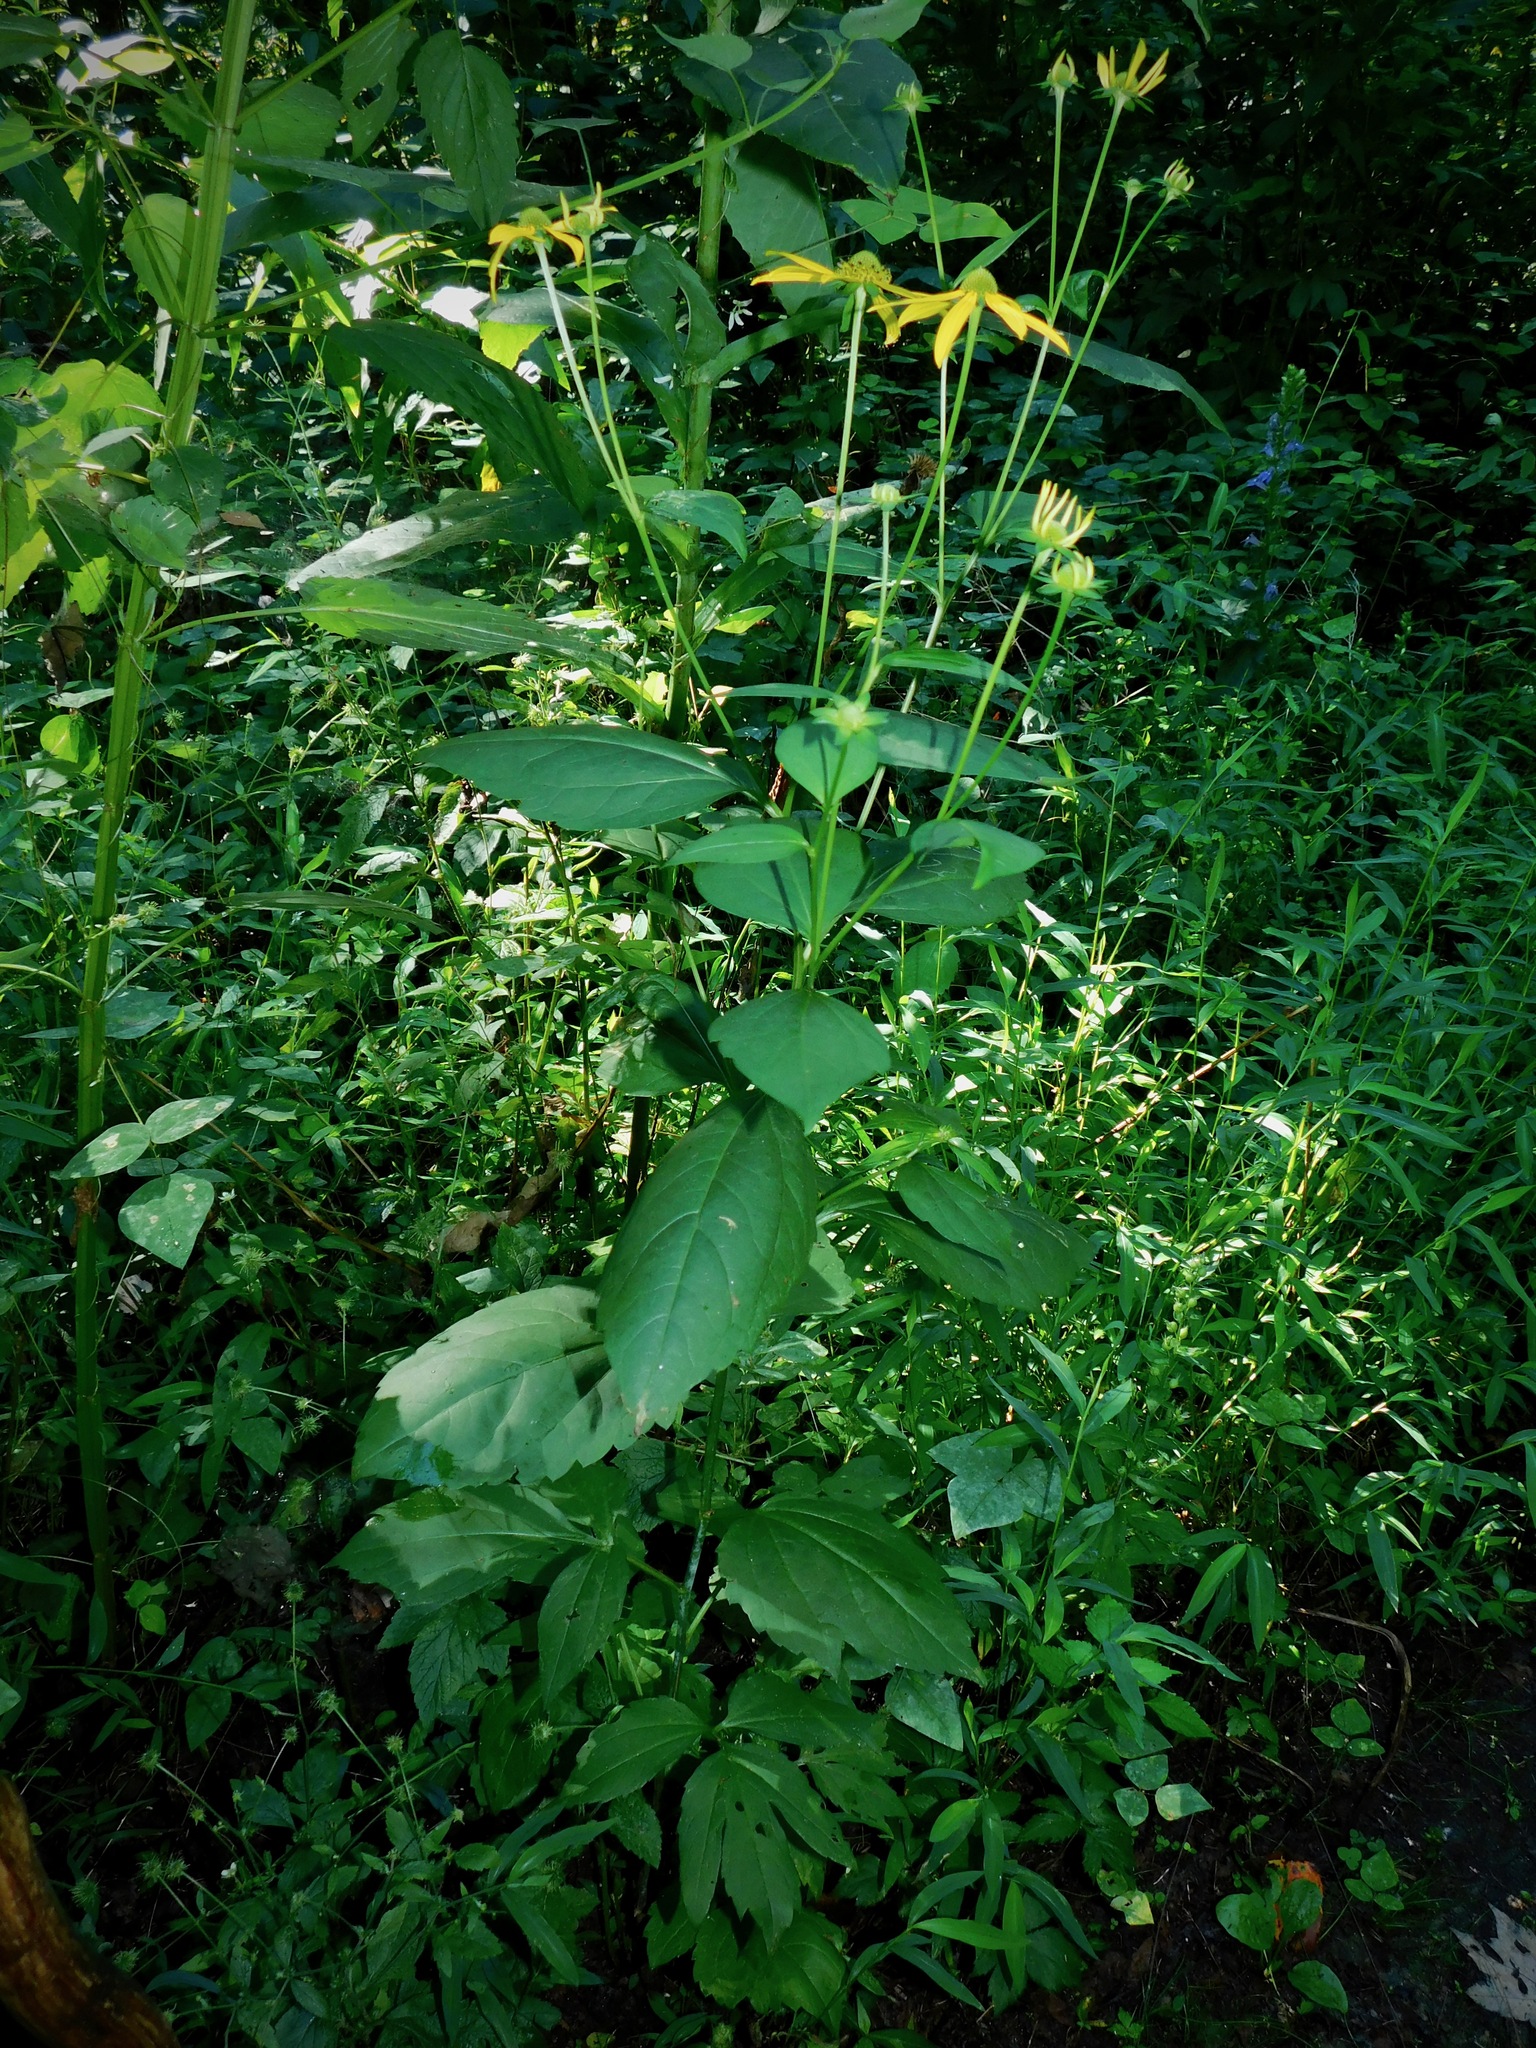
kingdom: Plantae
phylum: Tracheophyta
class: Magnoliopsida
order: Asterales
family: Asteraceae
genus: Rudbeckia
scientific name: Rudbeckia laciniata
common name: Coneflower
